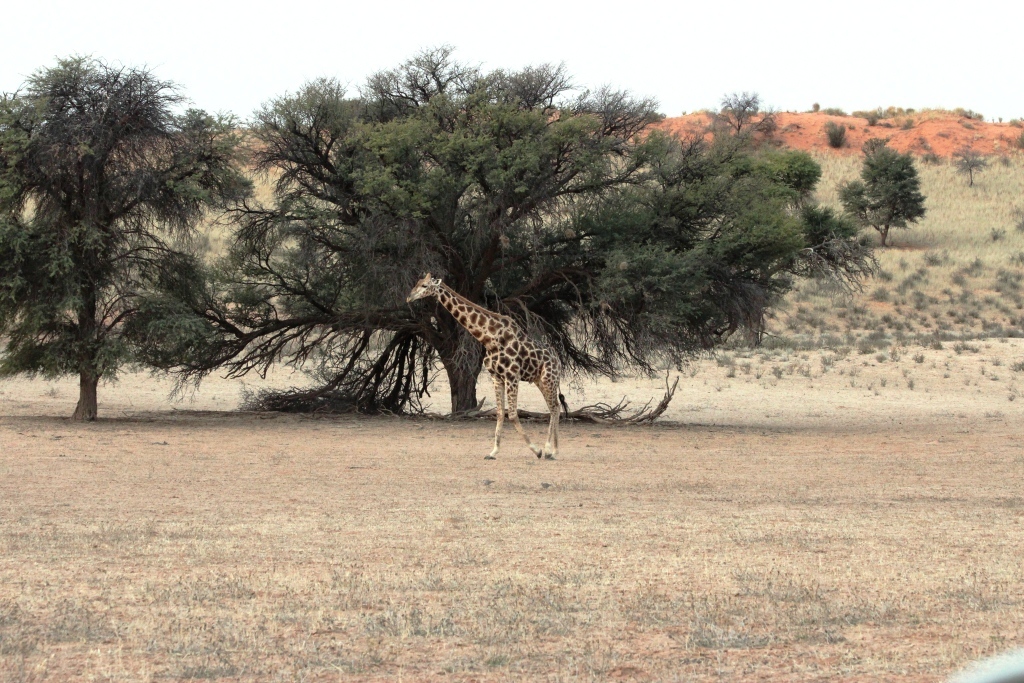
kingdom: Plantae
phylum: Tracheophyta
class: Magnoliopsida
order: Fabales
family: Fabaceae
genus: Vachellia
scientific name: Vachellia erioloba
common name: Camel thorn
